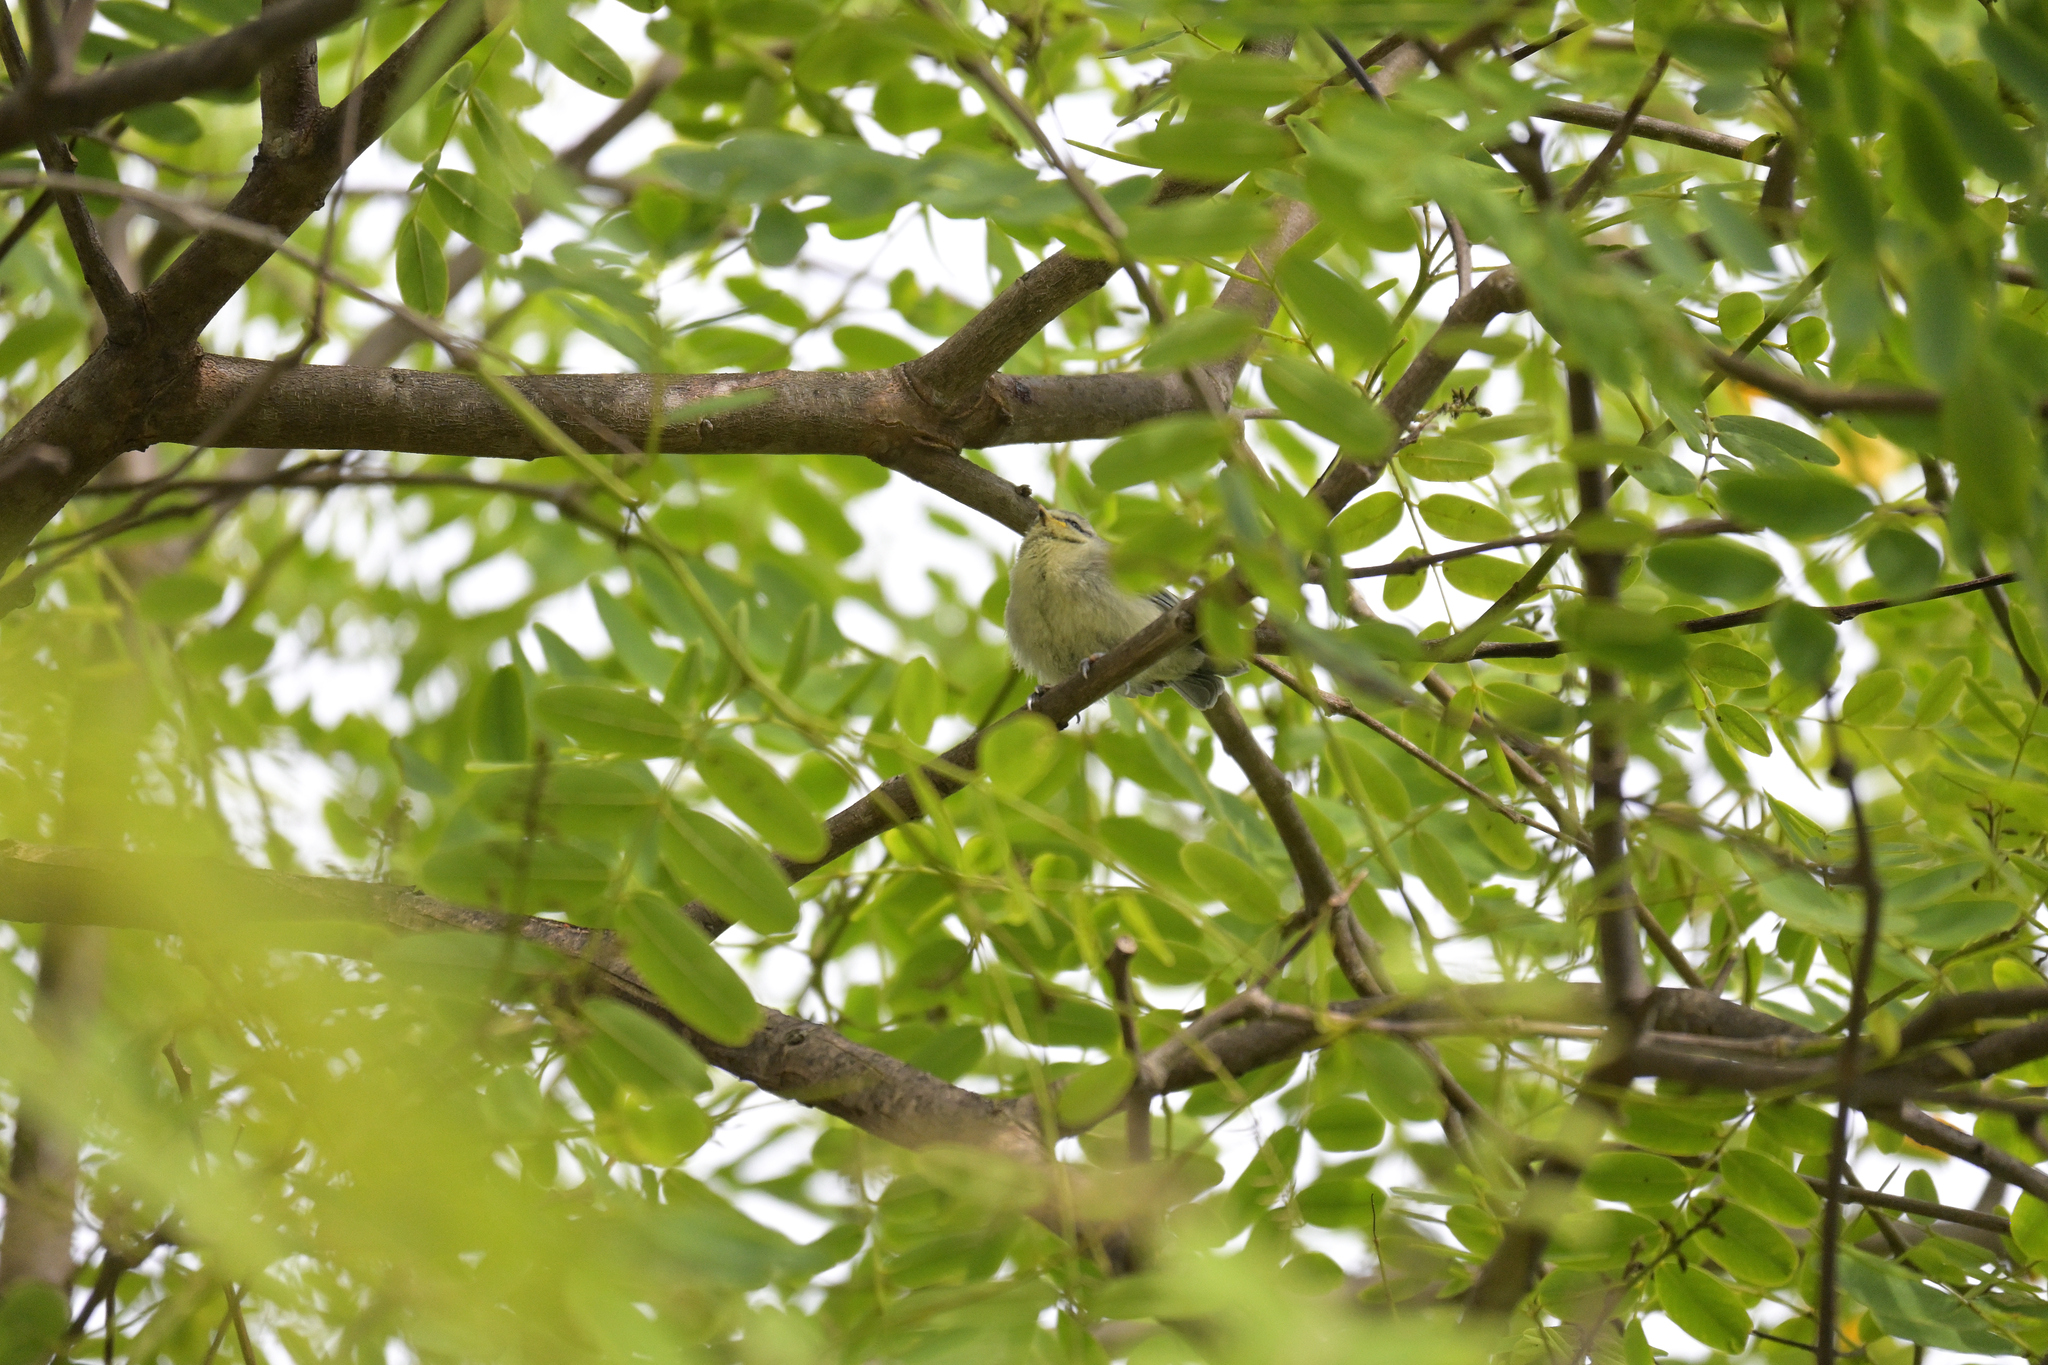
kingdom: Animalia
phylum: Chordata
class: Aves
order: Passeriformes
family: Paridae
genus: Cyanistes
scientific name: Cyanistes caeruleus
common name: Eurasian blue tit
